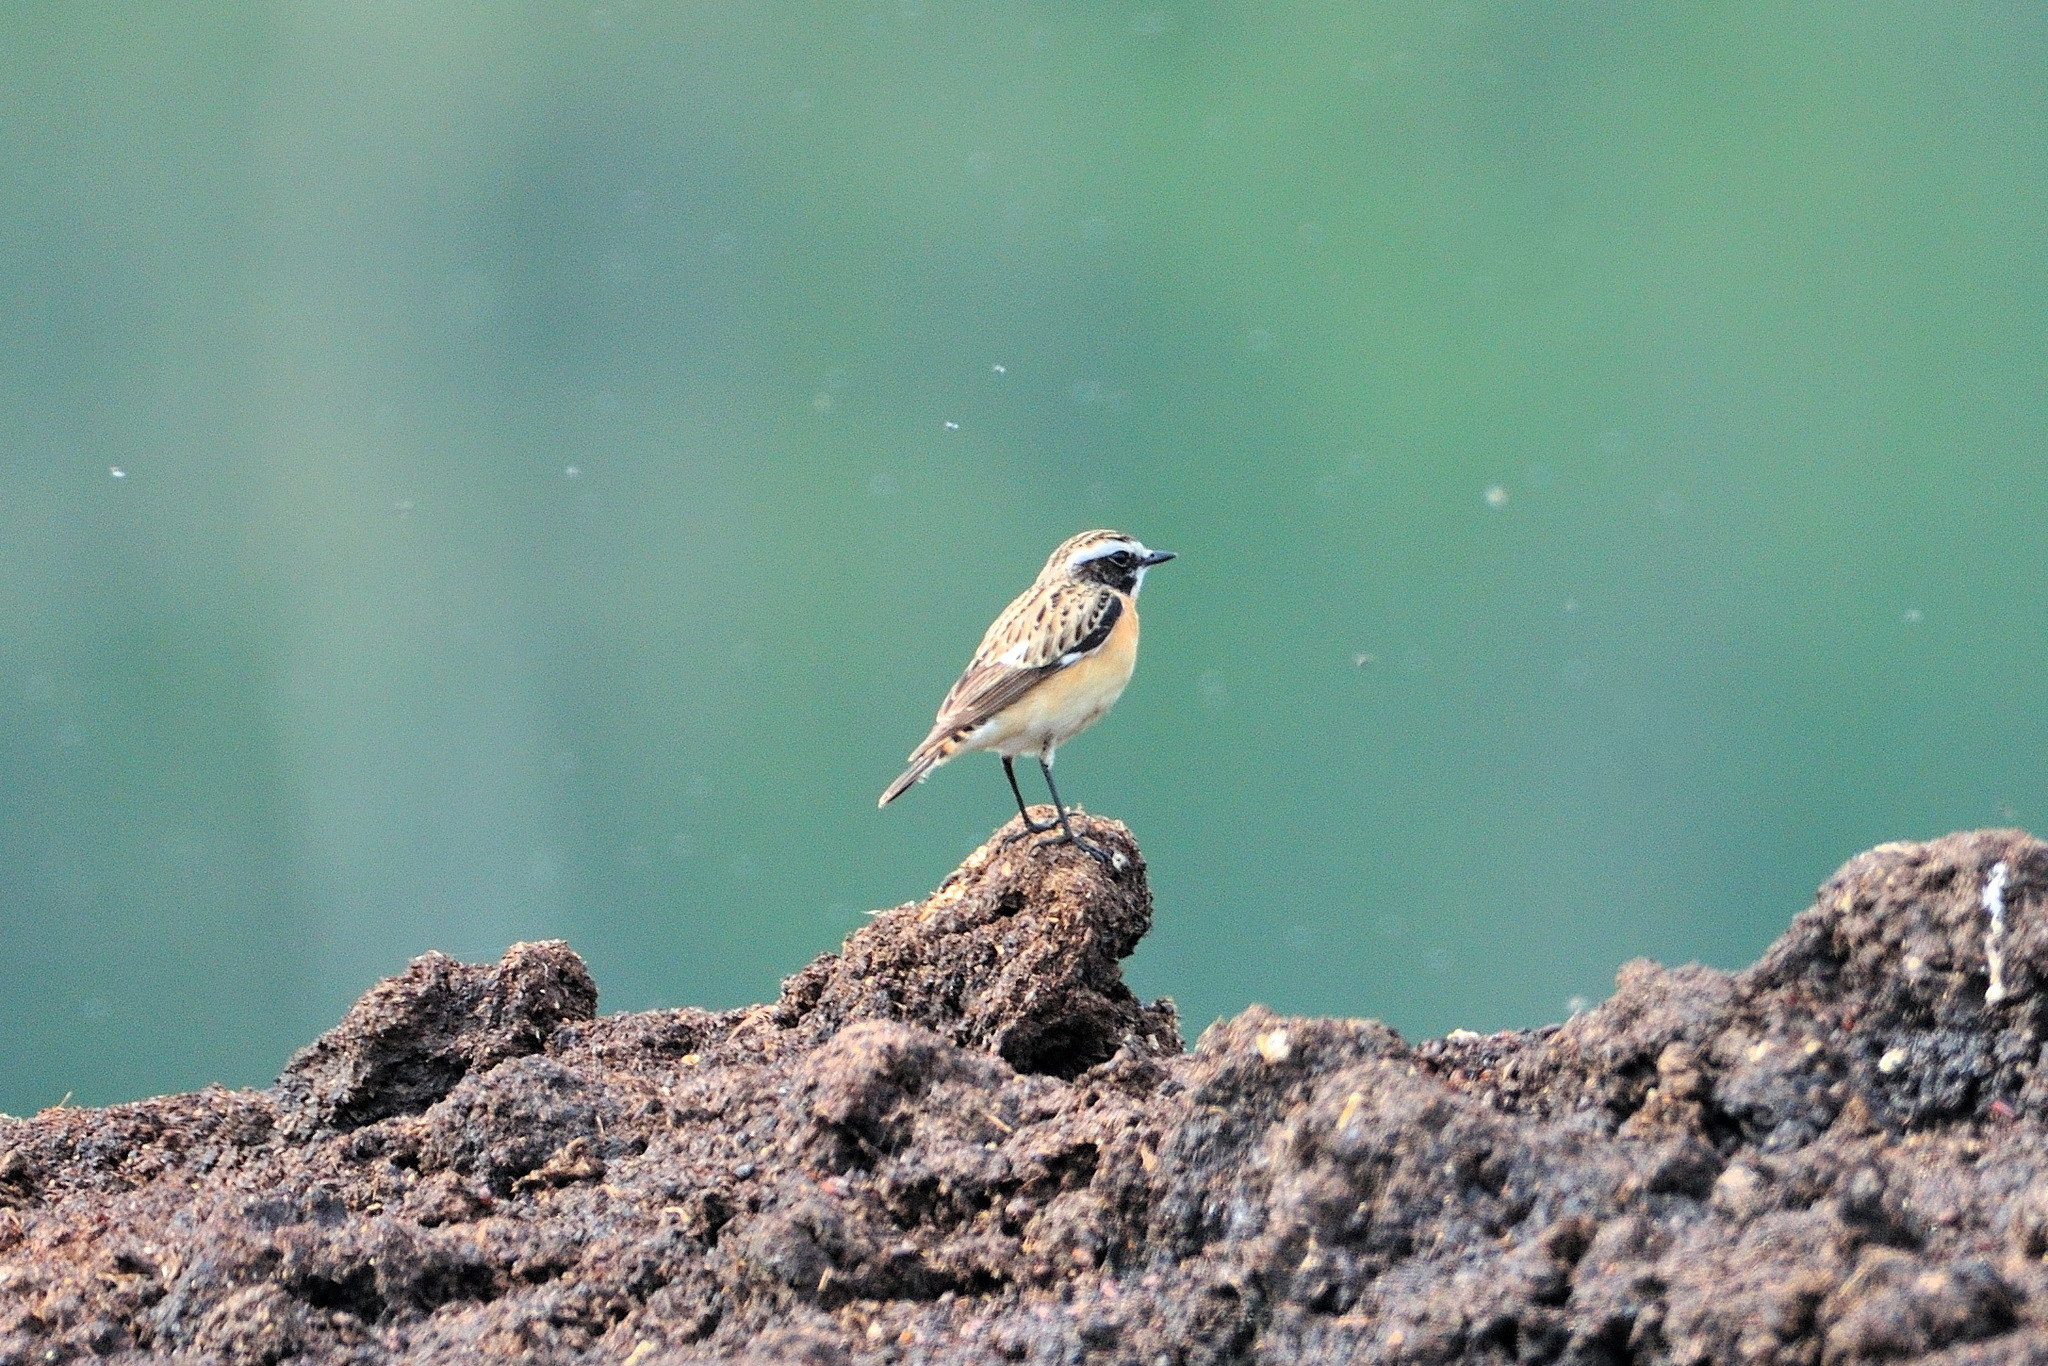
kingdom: Animalia
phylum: Chordata
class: Aves
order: Passeriformes
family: Muscicapidae
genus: Saxicola
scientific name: Saxicola rubetra
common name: Whinchat
